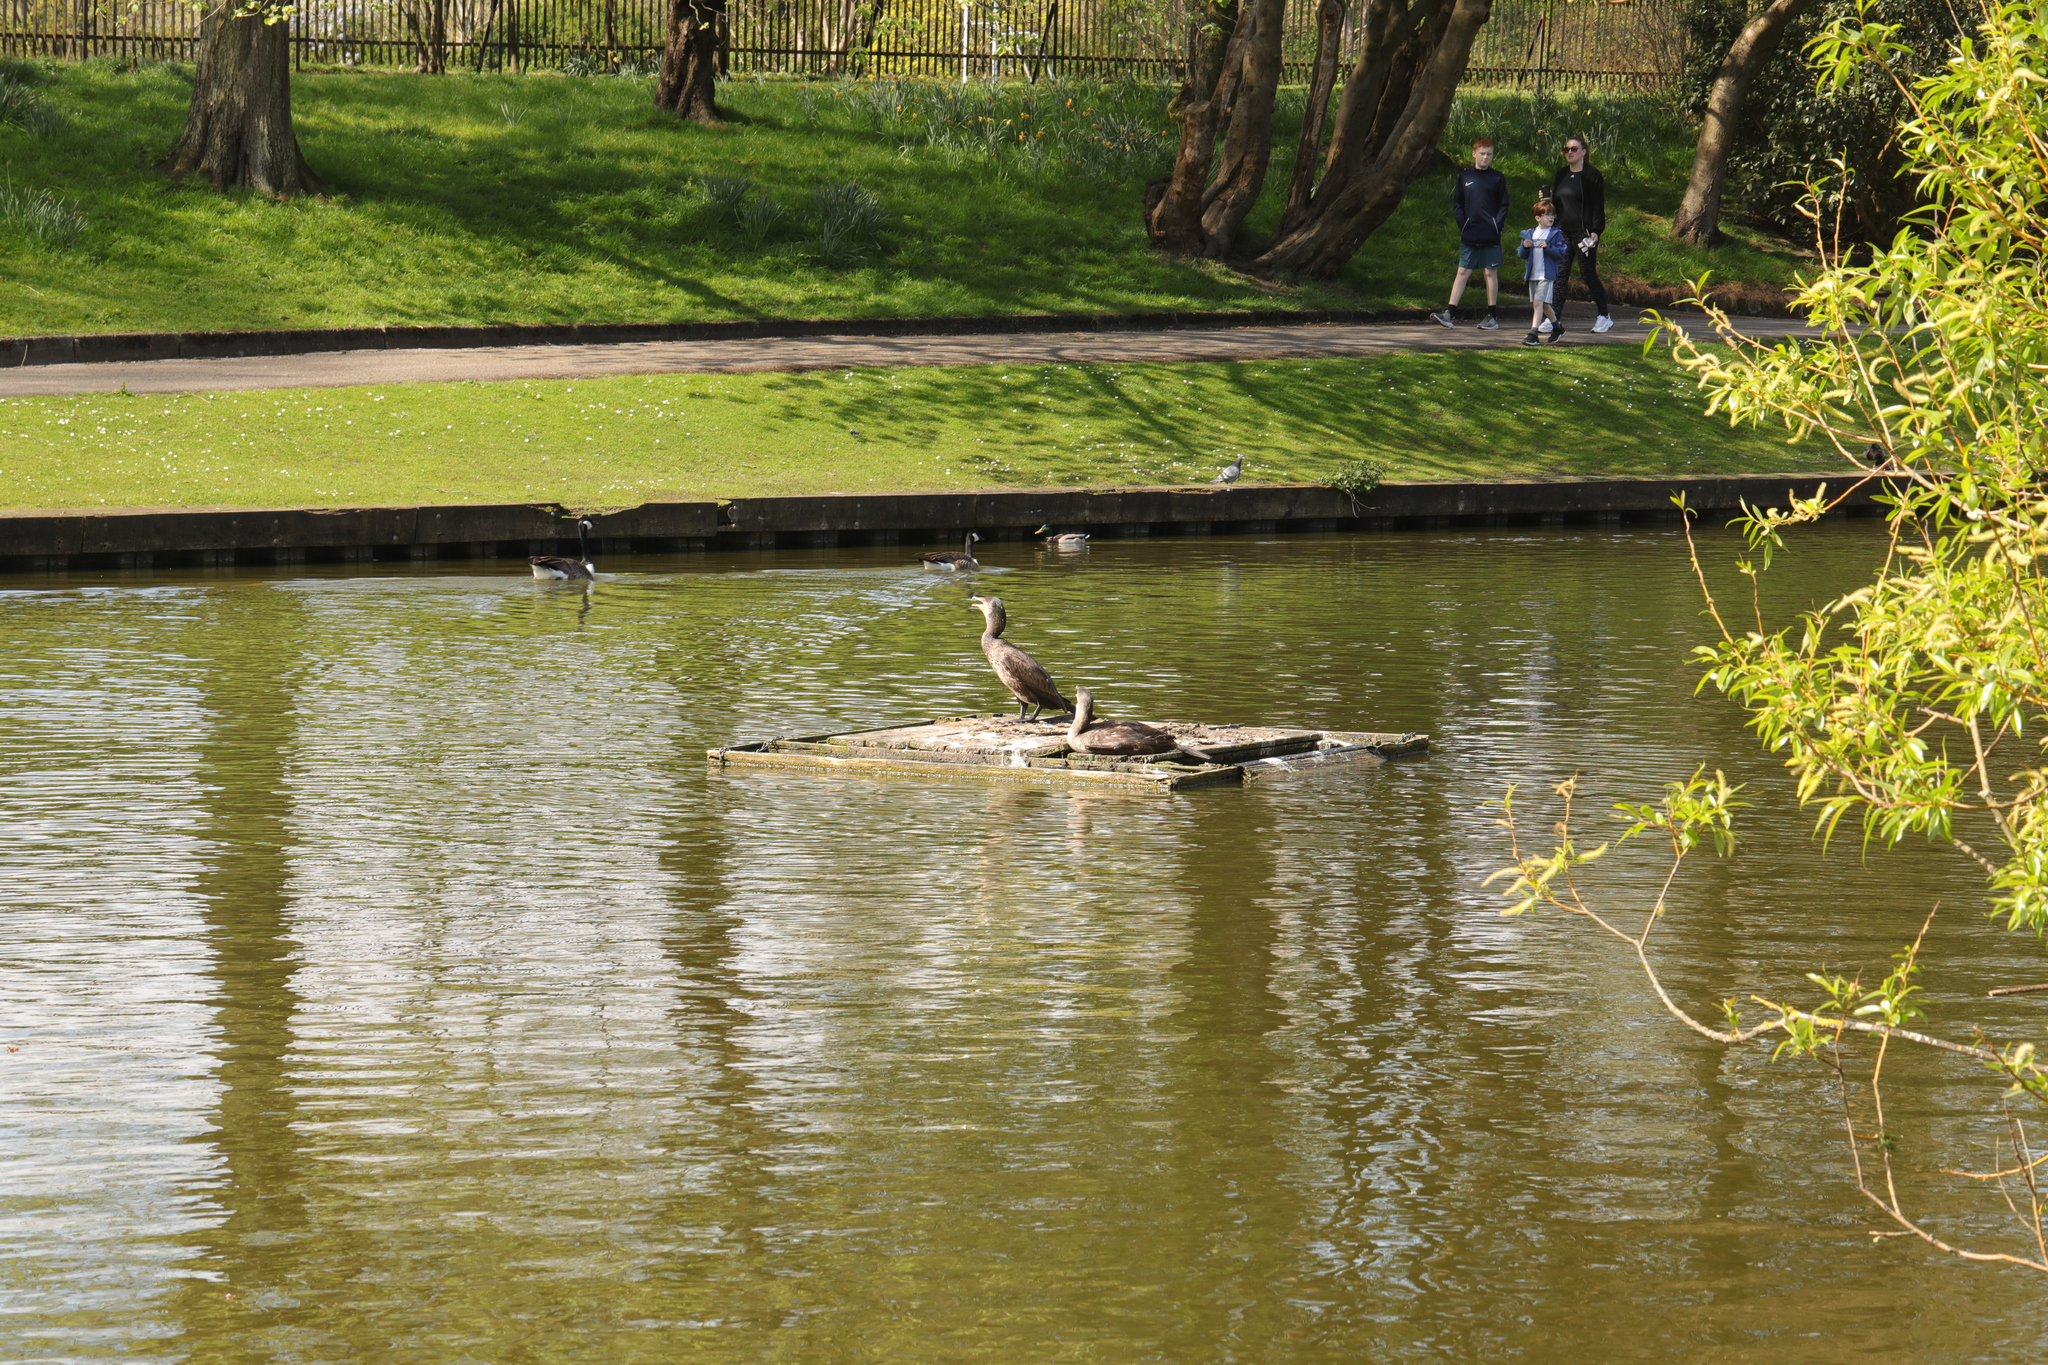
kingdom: Animalia
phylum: Chordata
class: Aves
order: Suliformes
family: Phalacrocoracidae
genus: Phalacrocorax
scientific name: Phalacrocorax carbo
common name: Great cormorant
